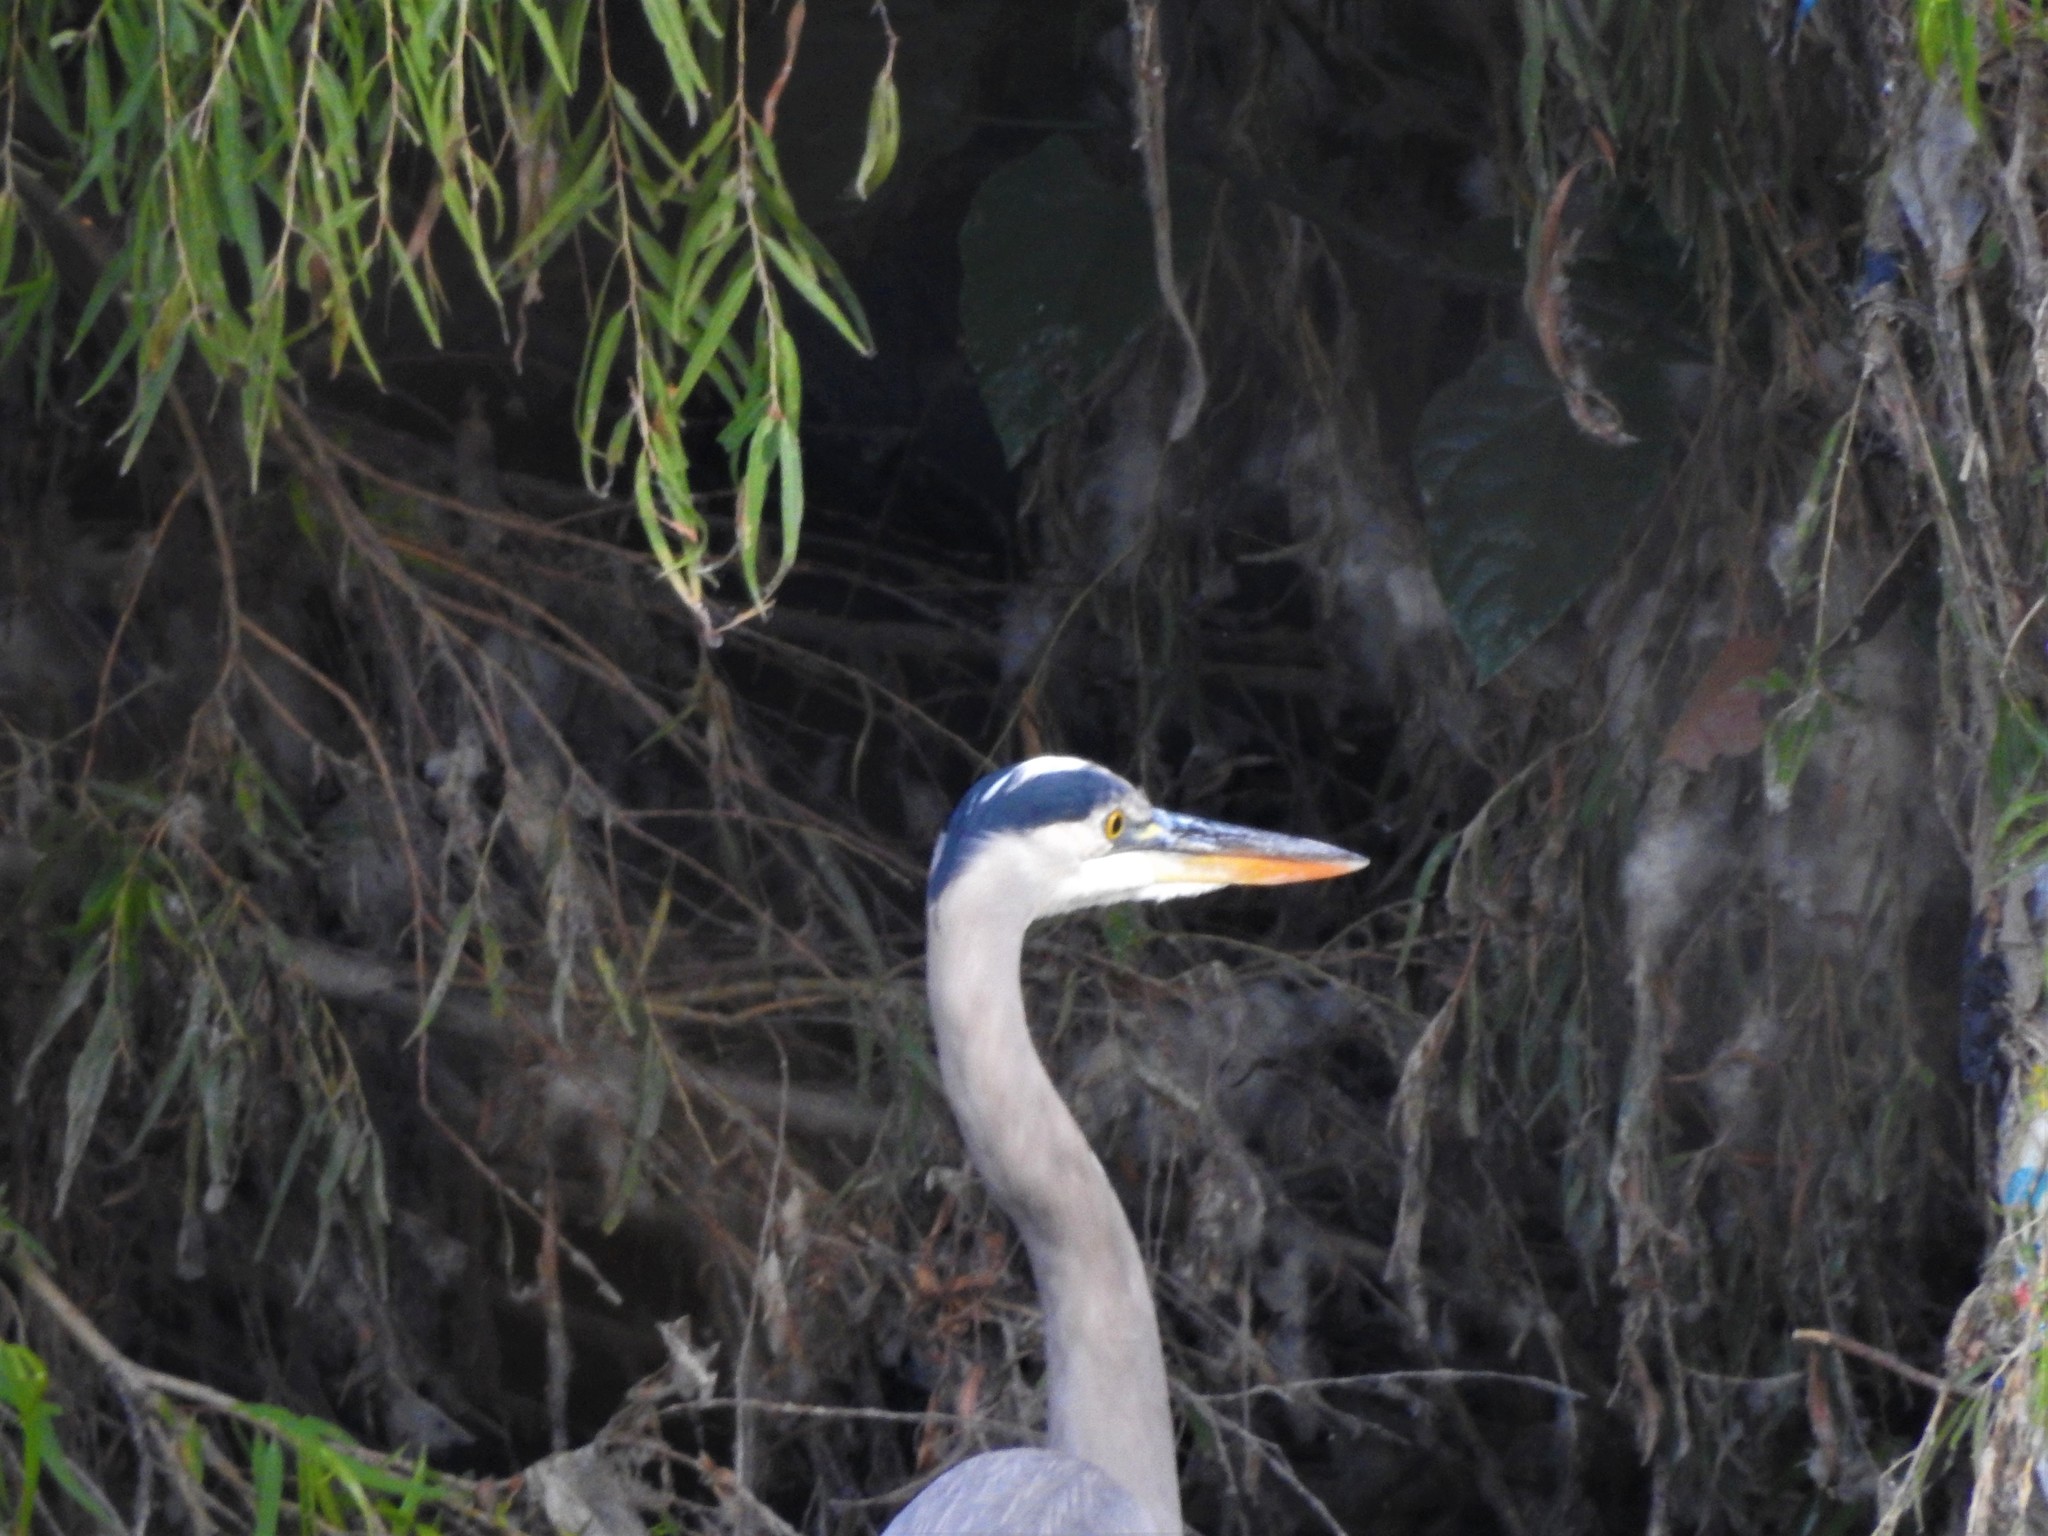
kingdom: Animalia
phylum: Chordata
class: Aves
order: Pelecaniformes
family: Ardeidae
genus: Ardea
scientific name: Ardea herodias
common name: Great blue heron
